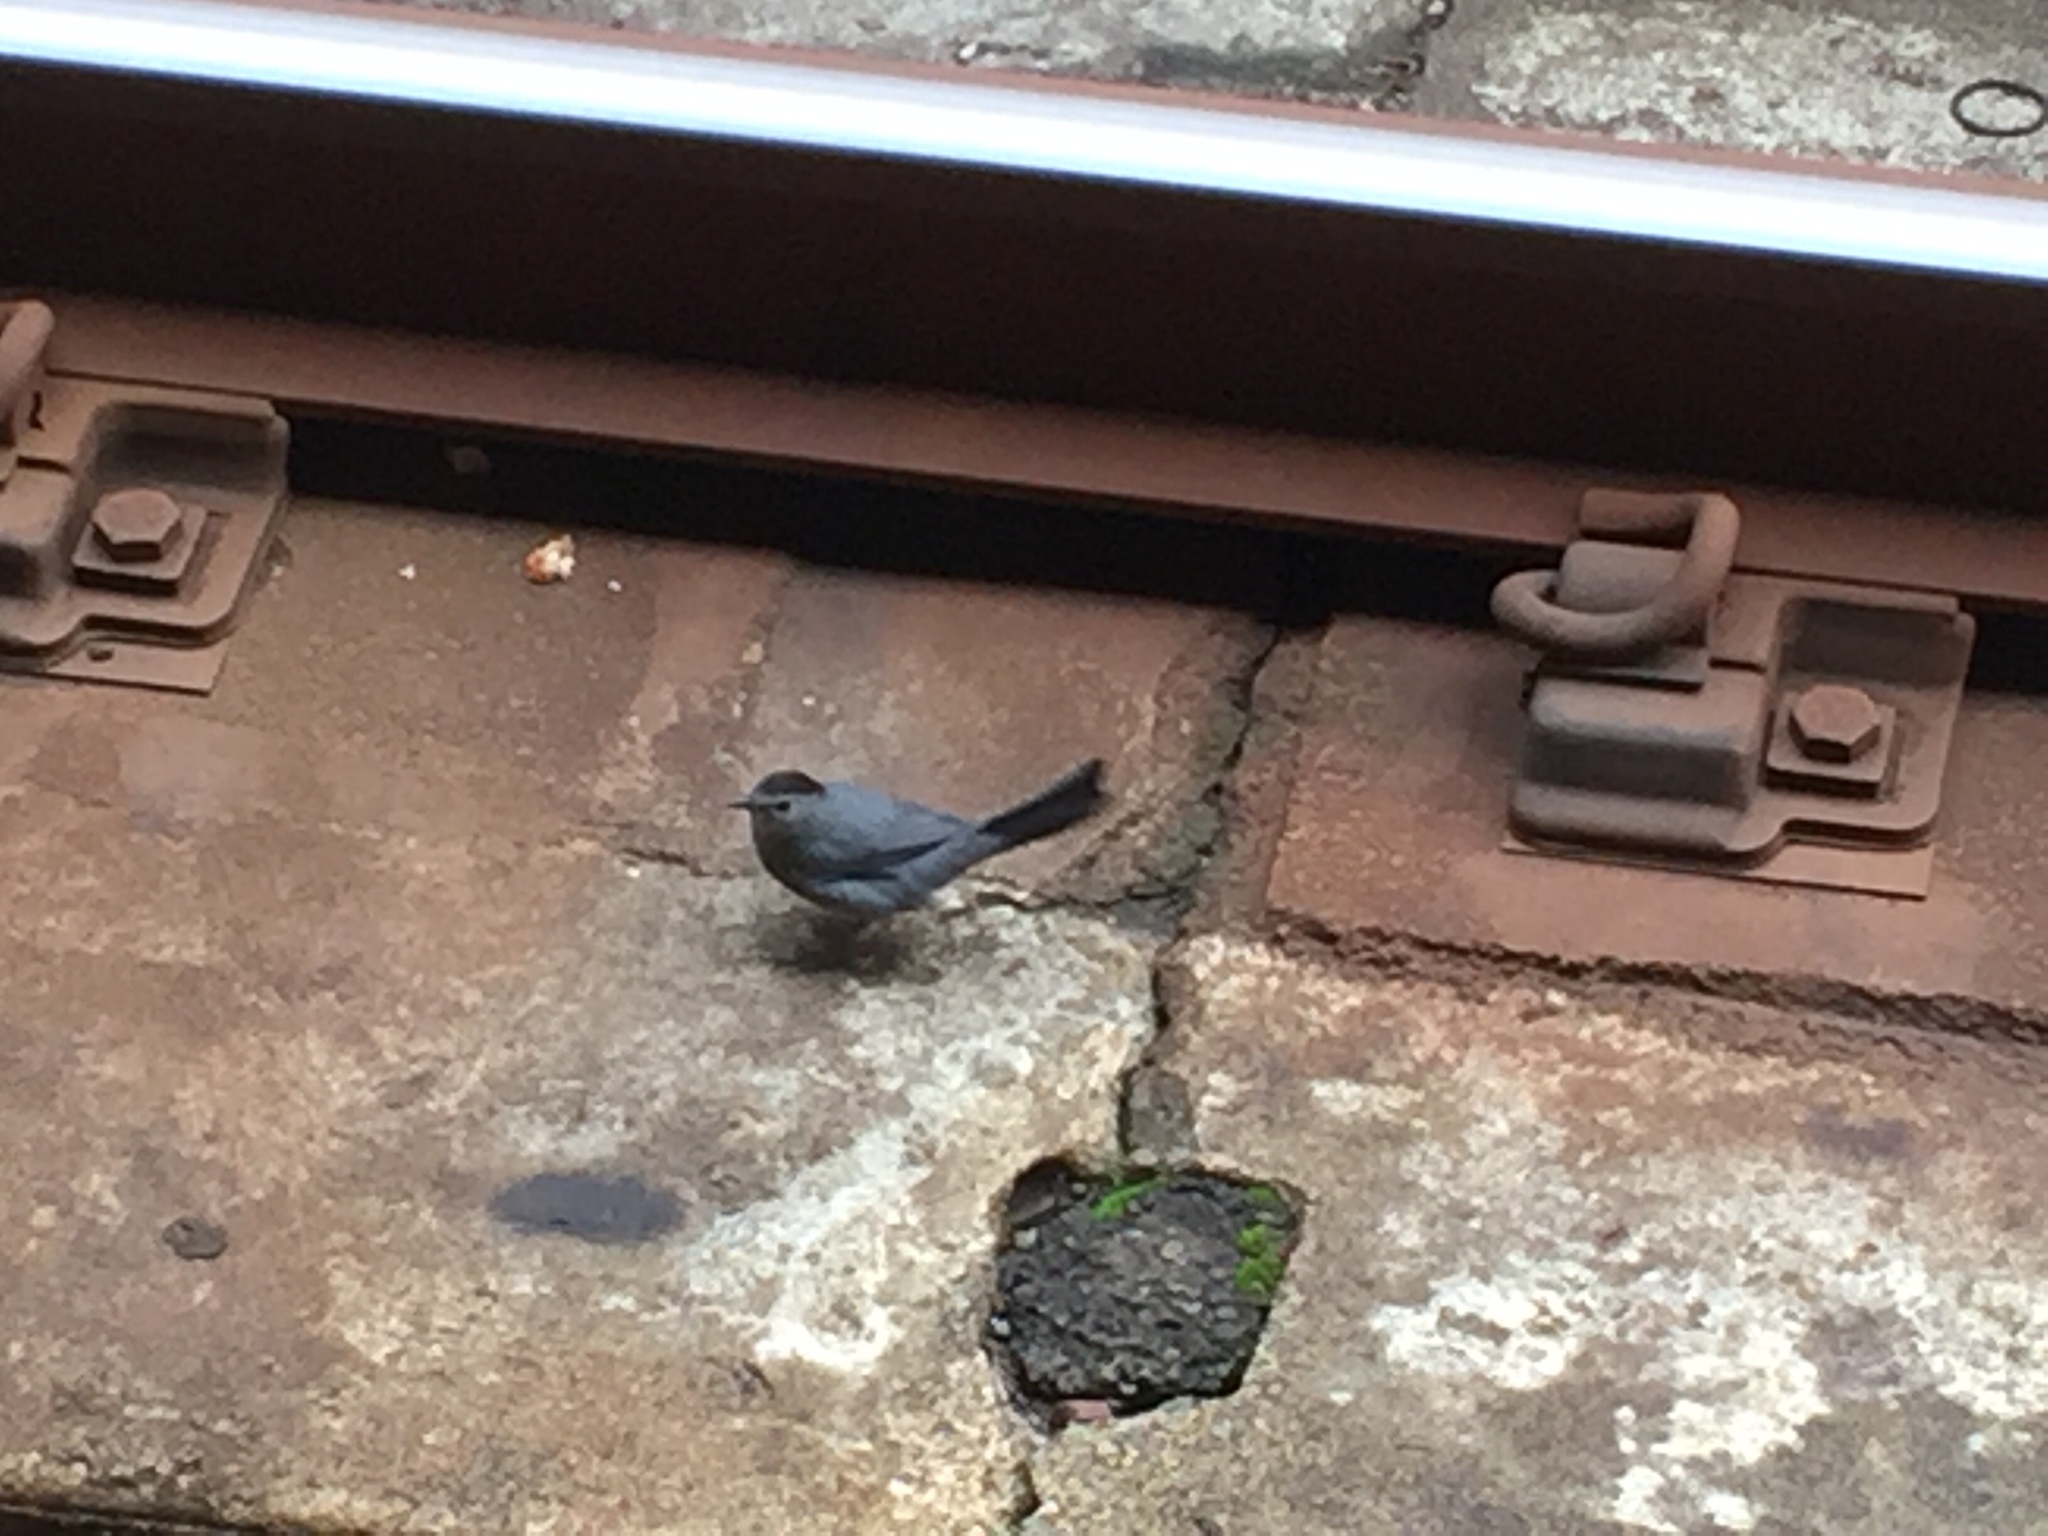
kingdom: Animalia
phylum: Chordata
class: Aves
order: Passeriformes
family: Mimidae
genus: Dumetella
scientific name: Dumetella carolinensis
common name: Gray catbird
